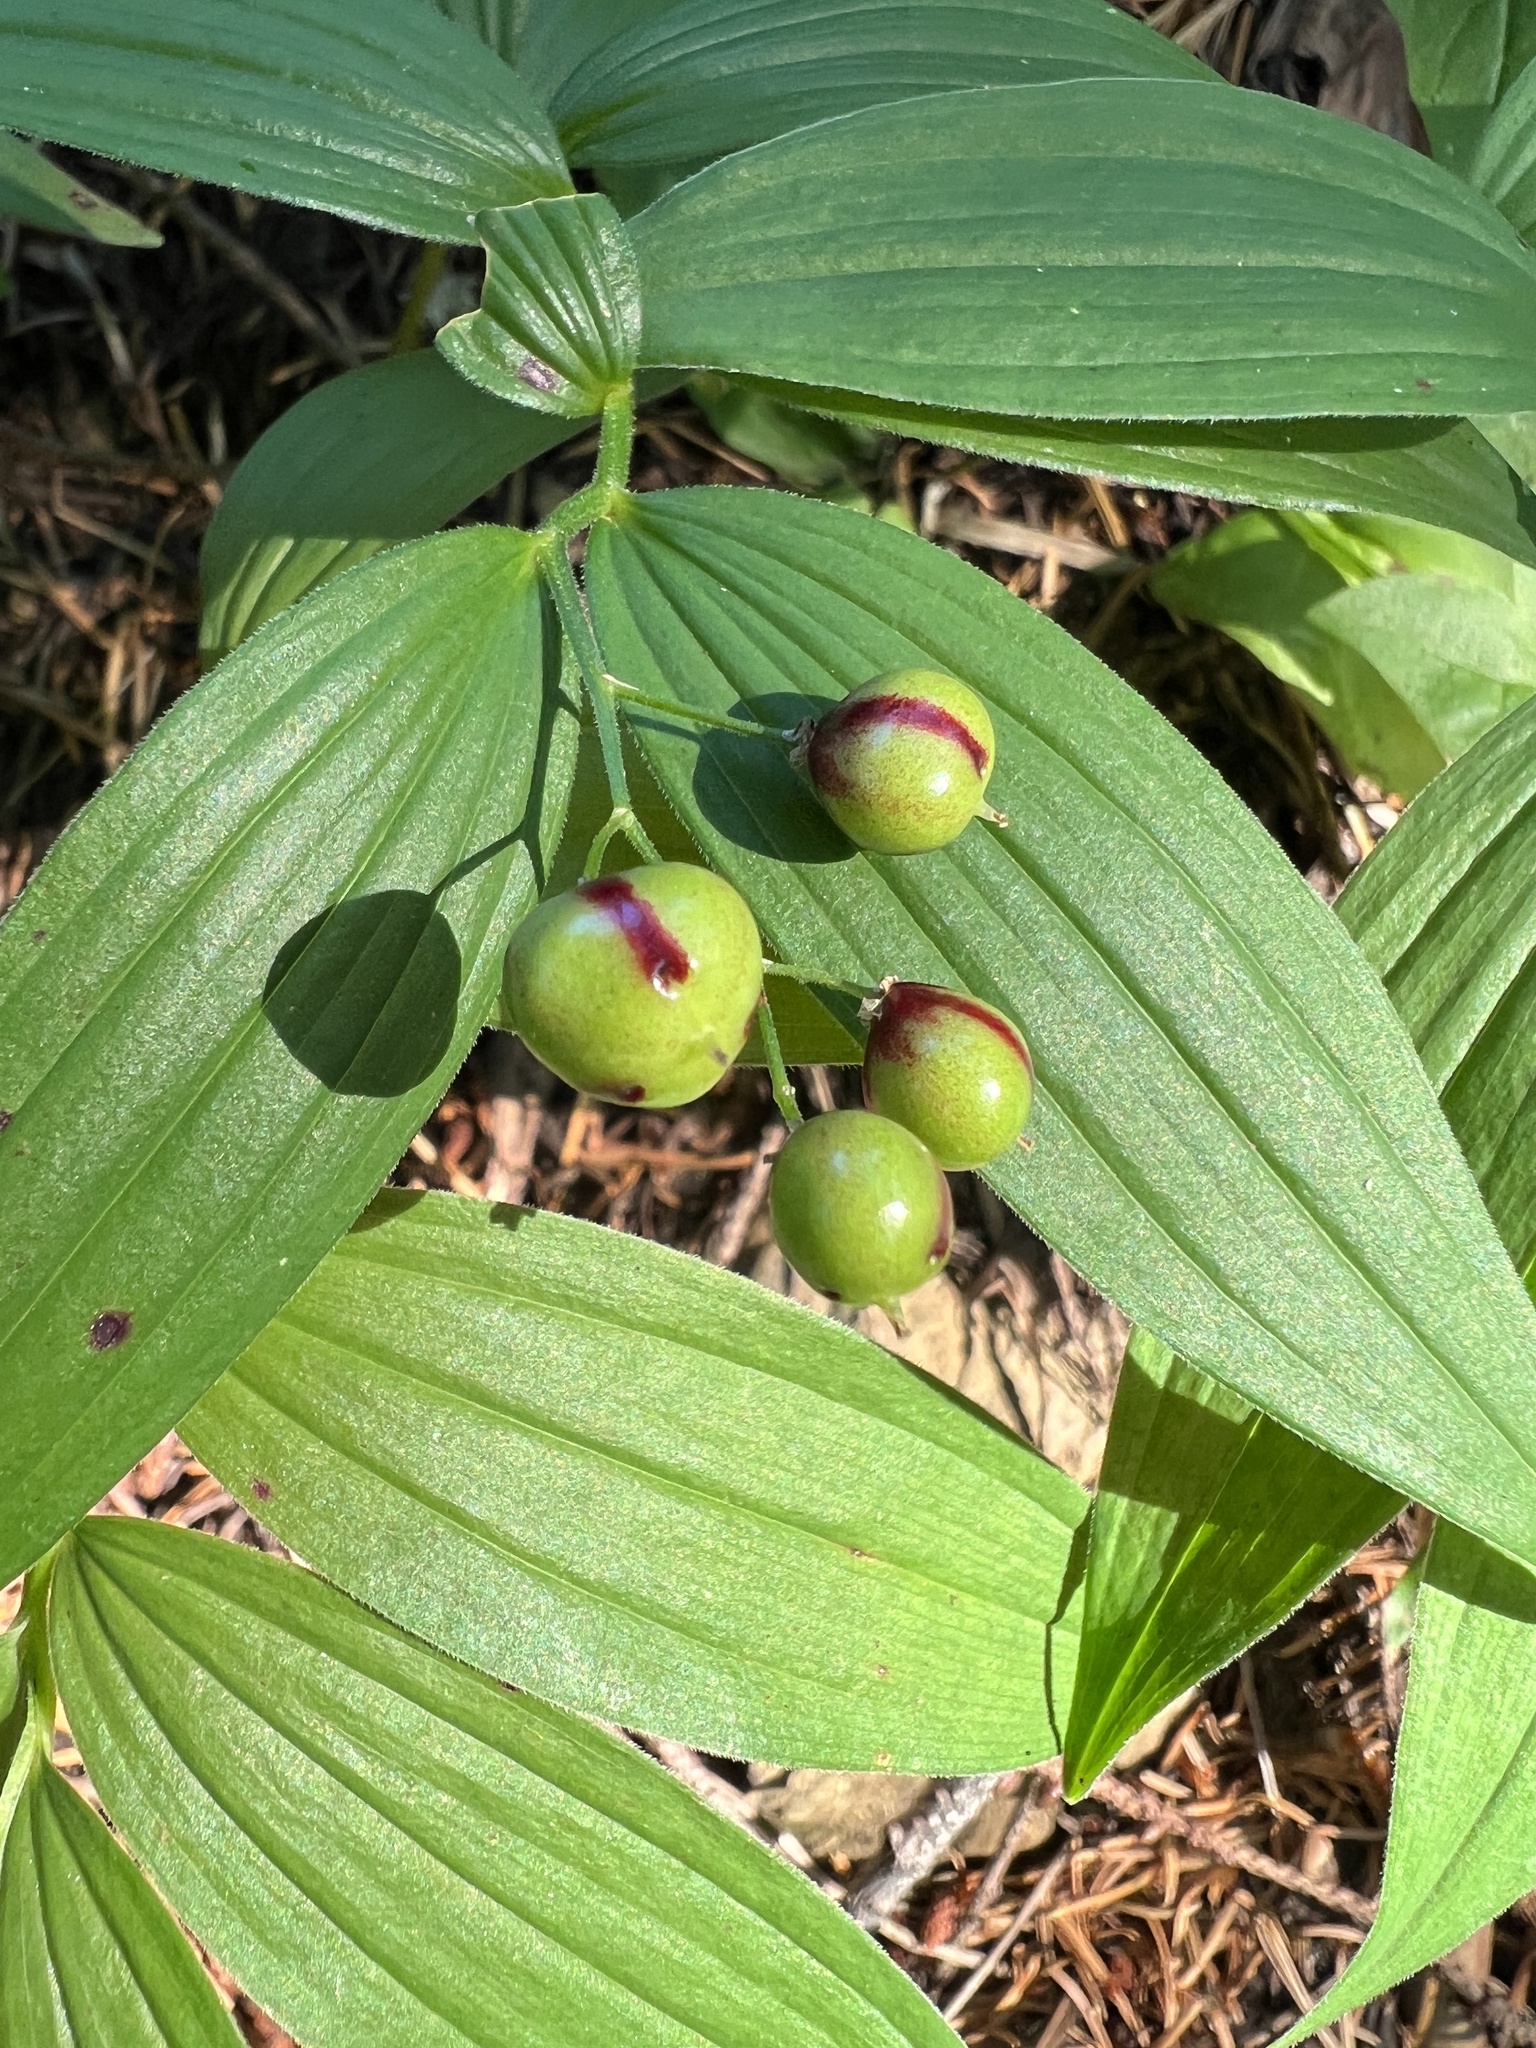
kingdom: Plantae
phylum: Tracheophyta
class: Liliopsida
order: Asparagales
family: Asparagaceae
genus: Maianthemum
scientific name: Maianthemum stellatum
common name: Little false solomon's seal
